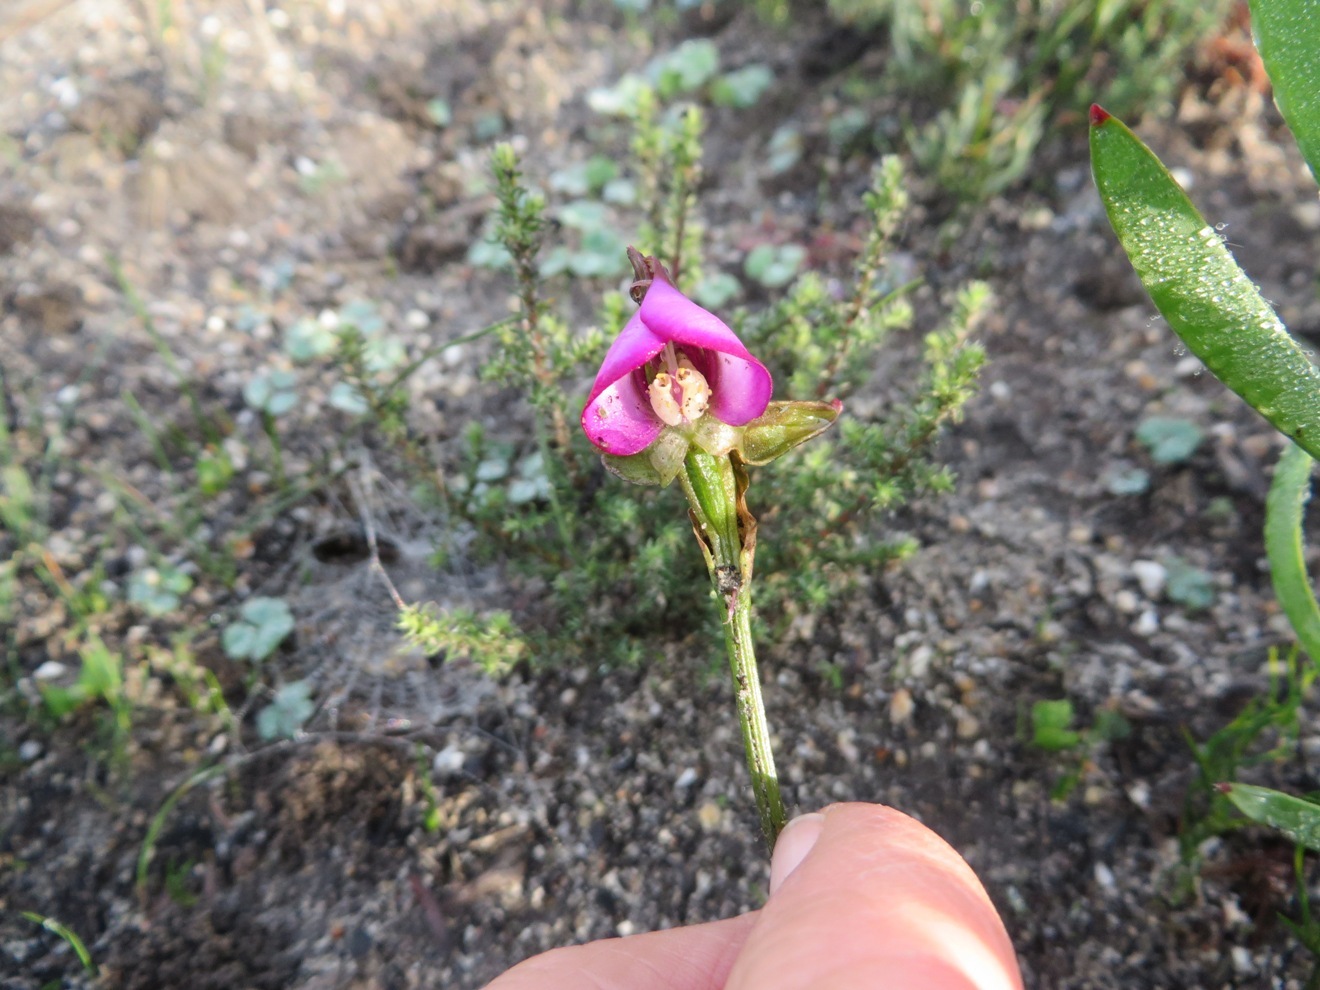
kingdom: Plantae
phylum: Tracheophyta
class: Liliopsida
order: Asparagales
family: Orchidaceae
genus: Disperis
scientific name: Disperis capensis
